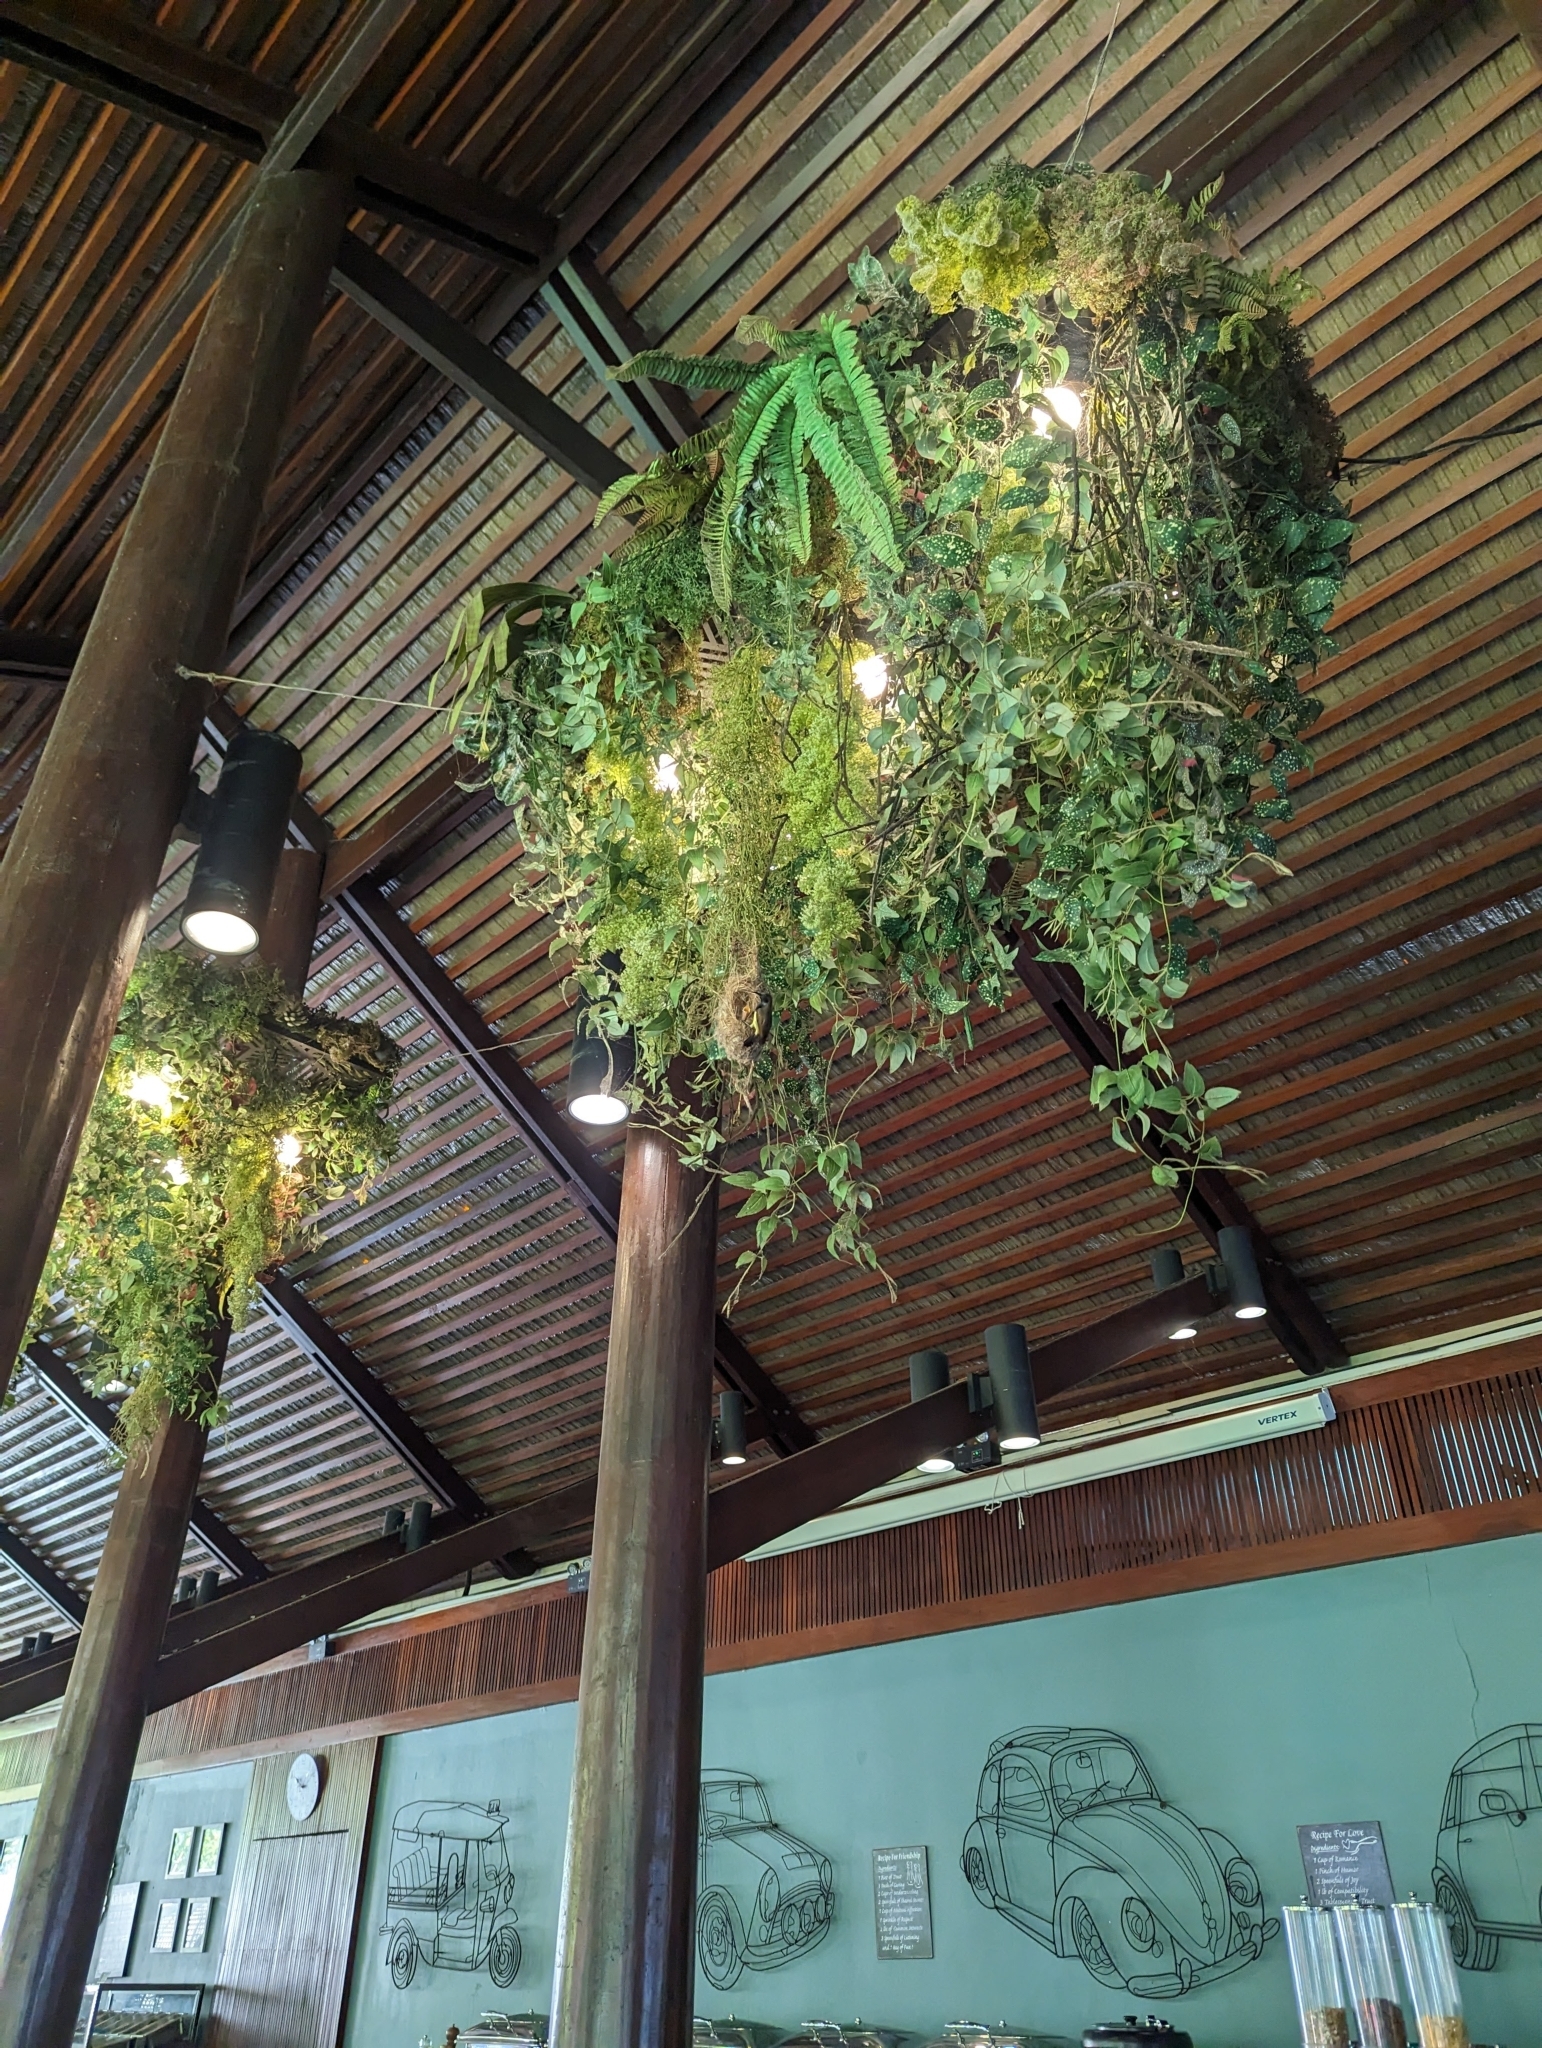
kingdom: Animalia
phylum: Chordata
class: Aves
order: Passeriformes
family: Nectariniidae
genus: Cinnyris
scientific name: Cinnyris
